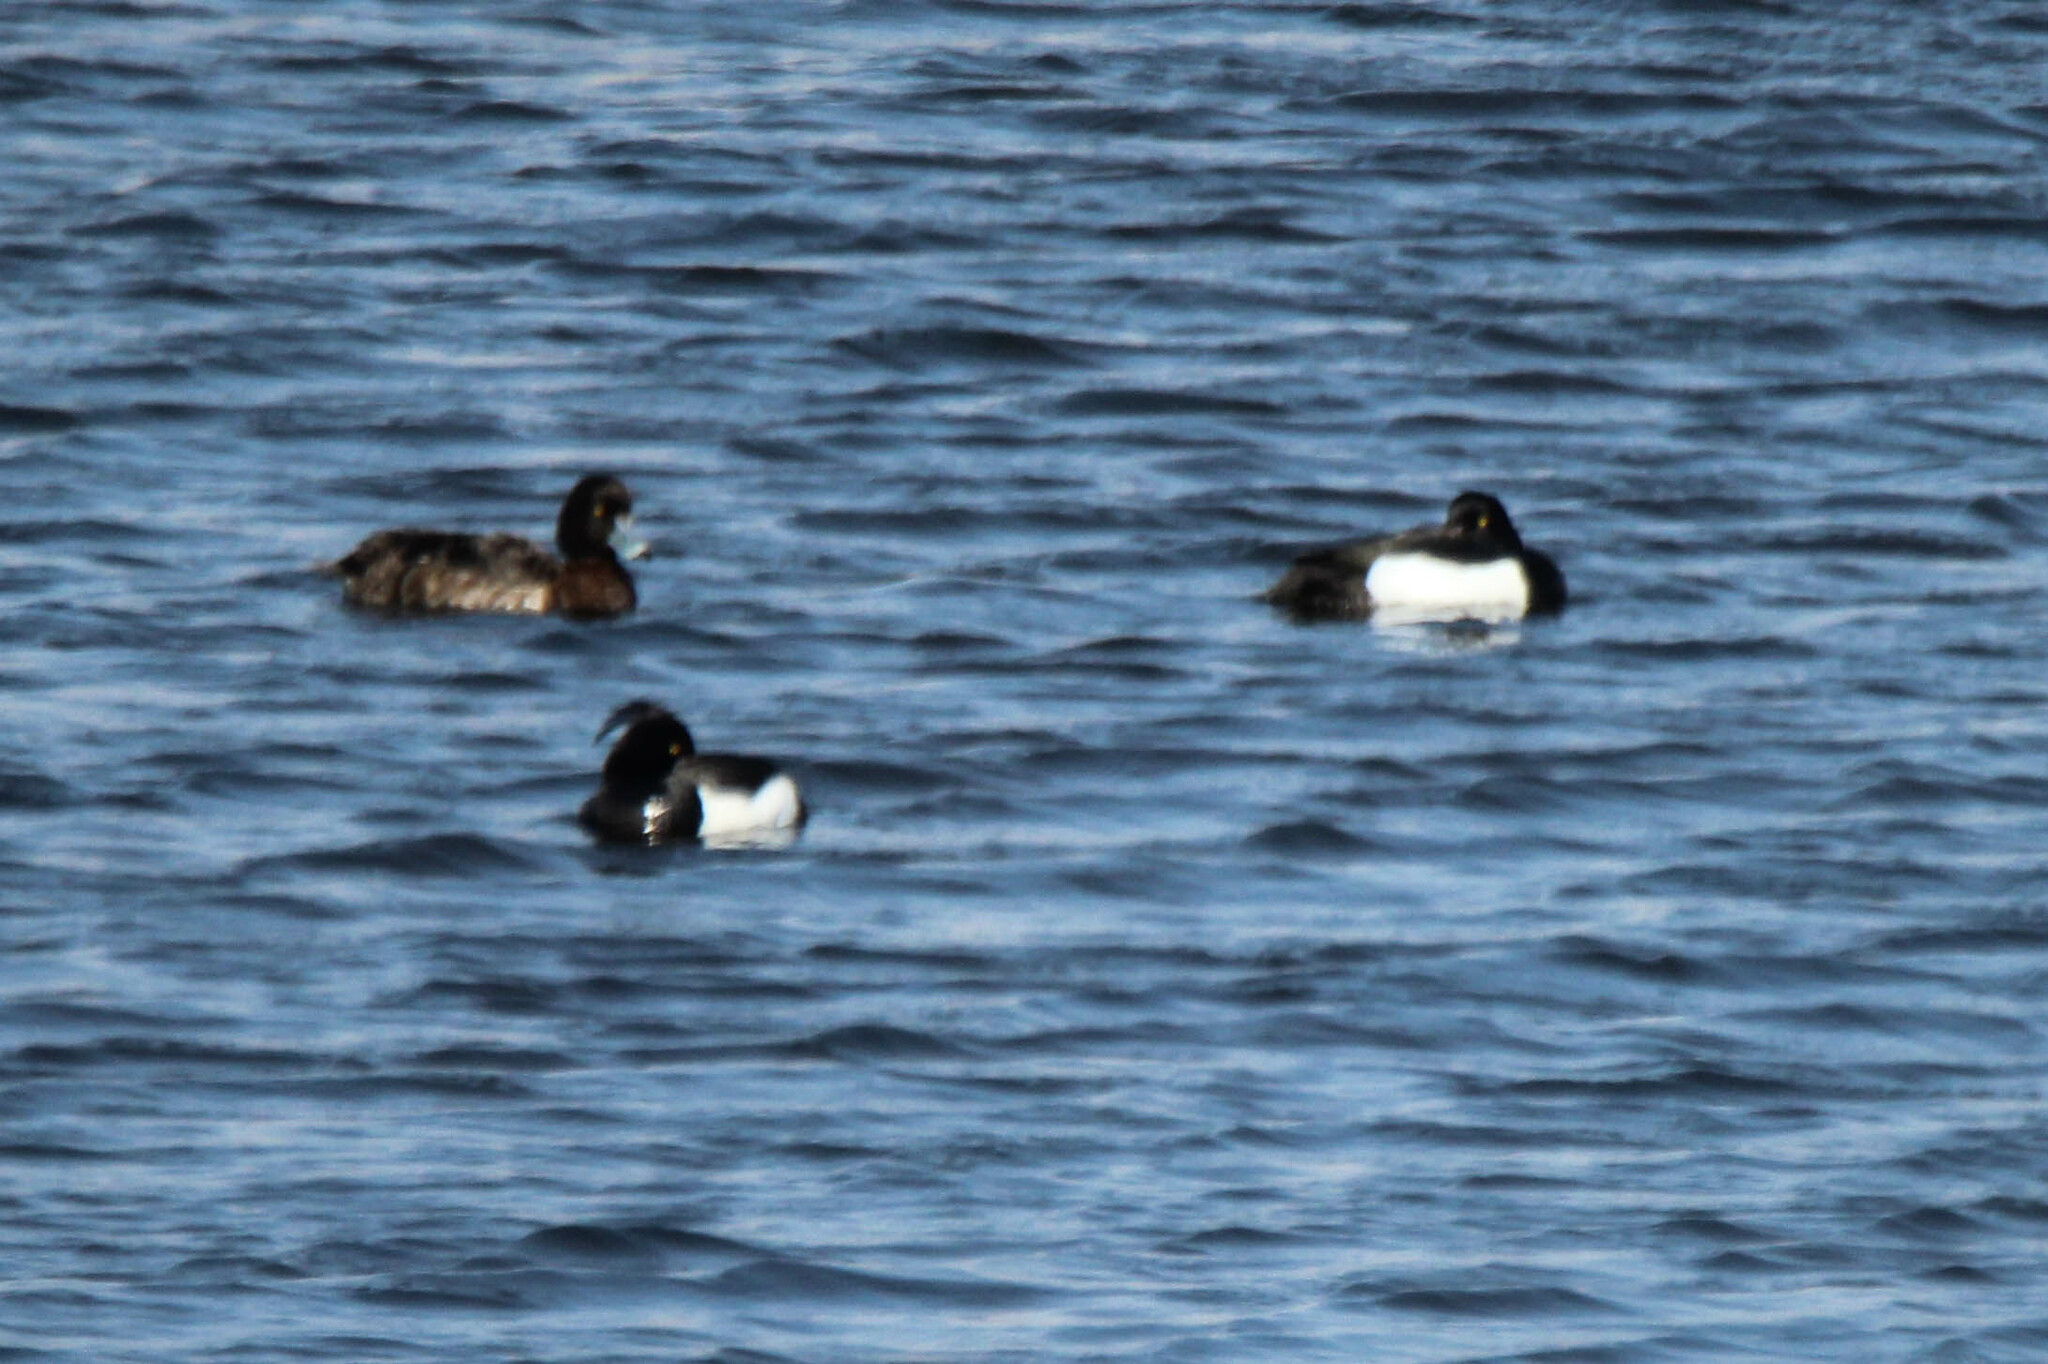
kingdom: Animalia
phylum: Chordata
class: Aves
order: Anseriformes
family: Anatidae
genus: Aythya
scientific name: Aythya fuligula
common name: Tufted duck
